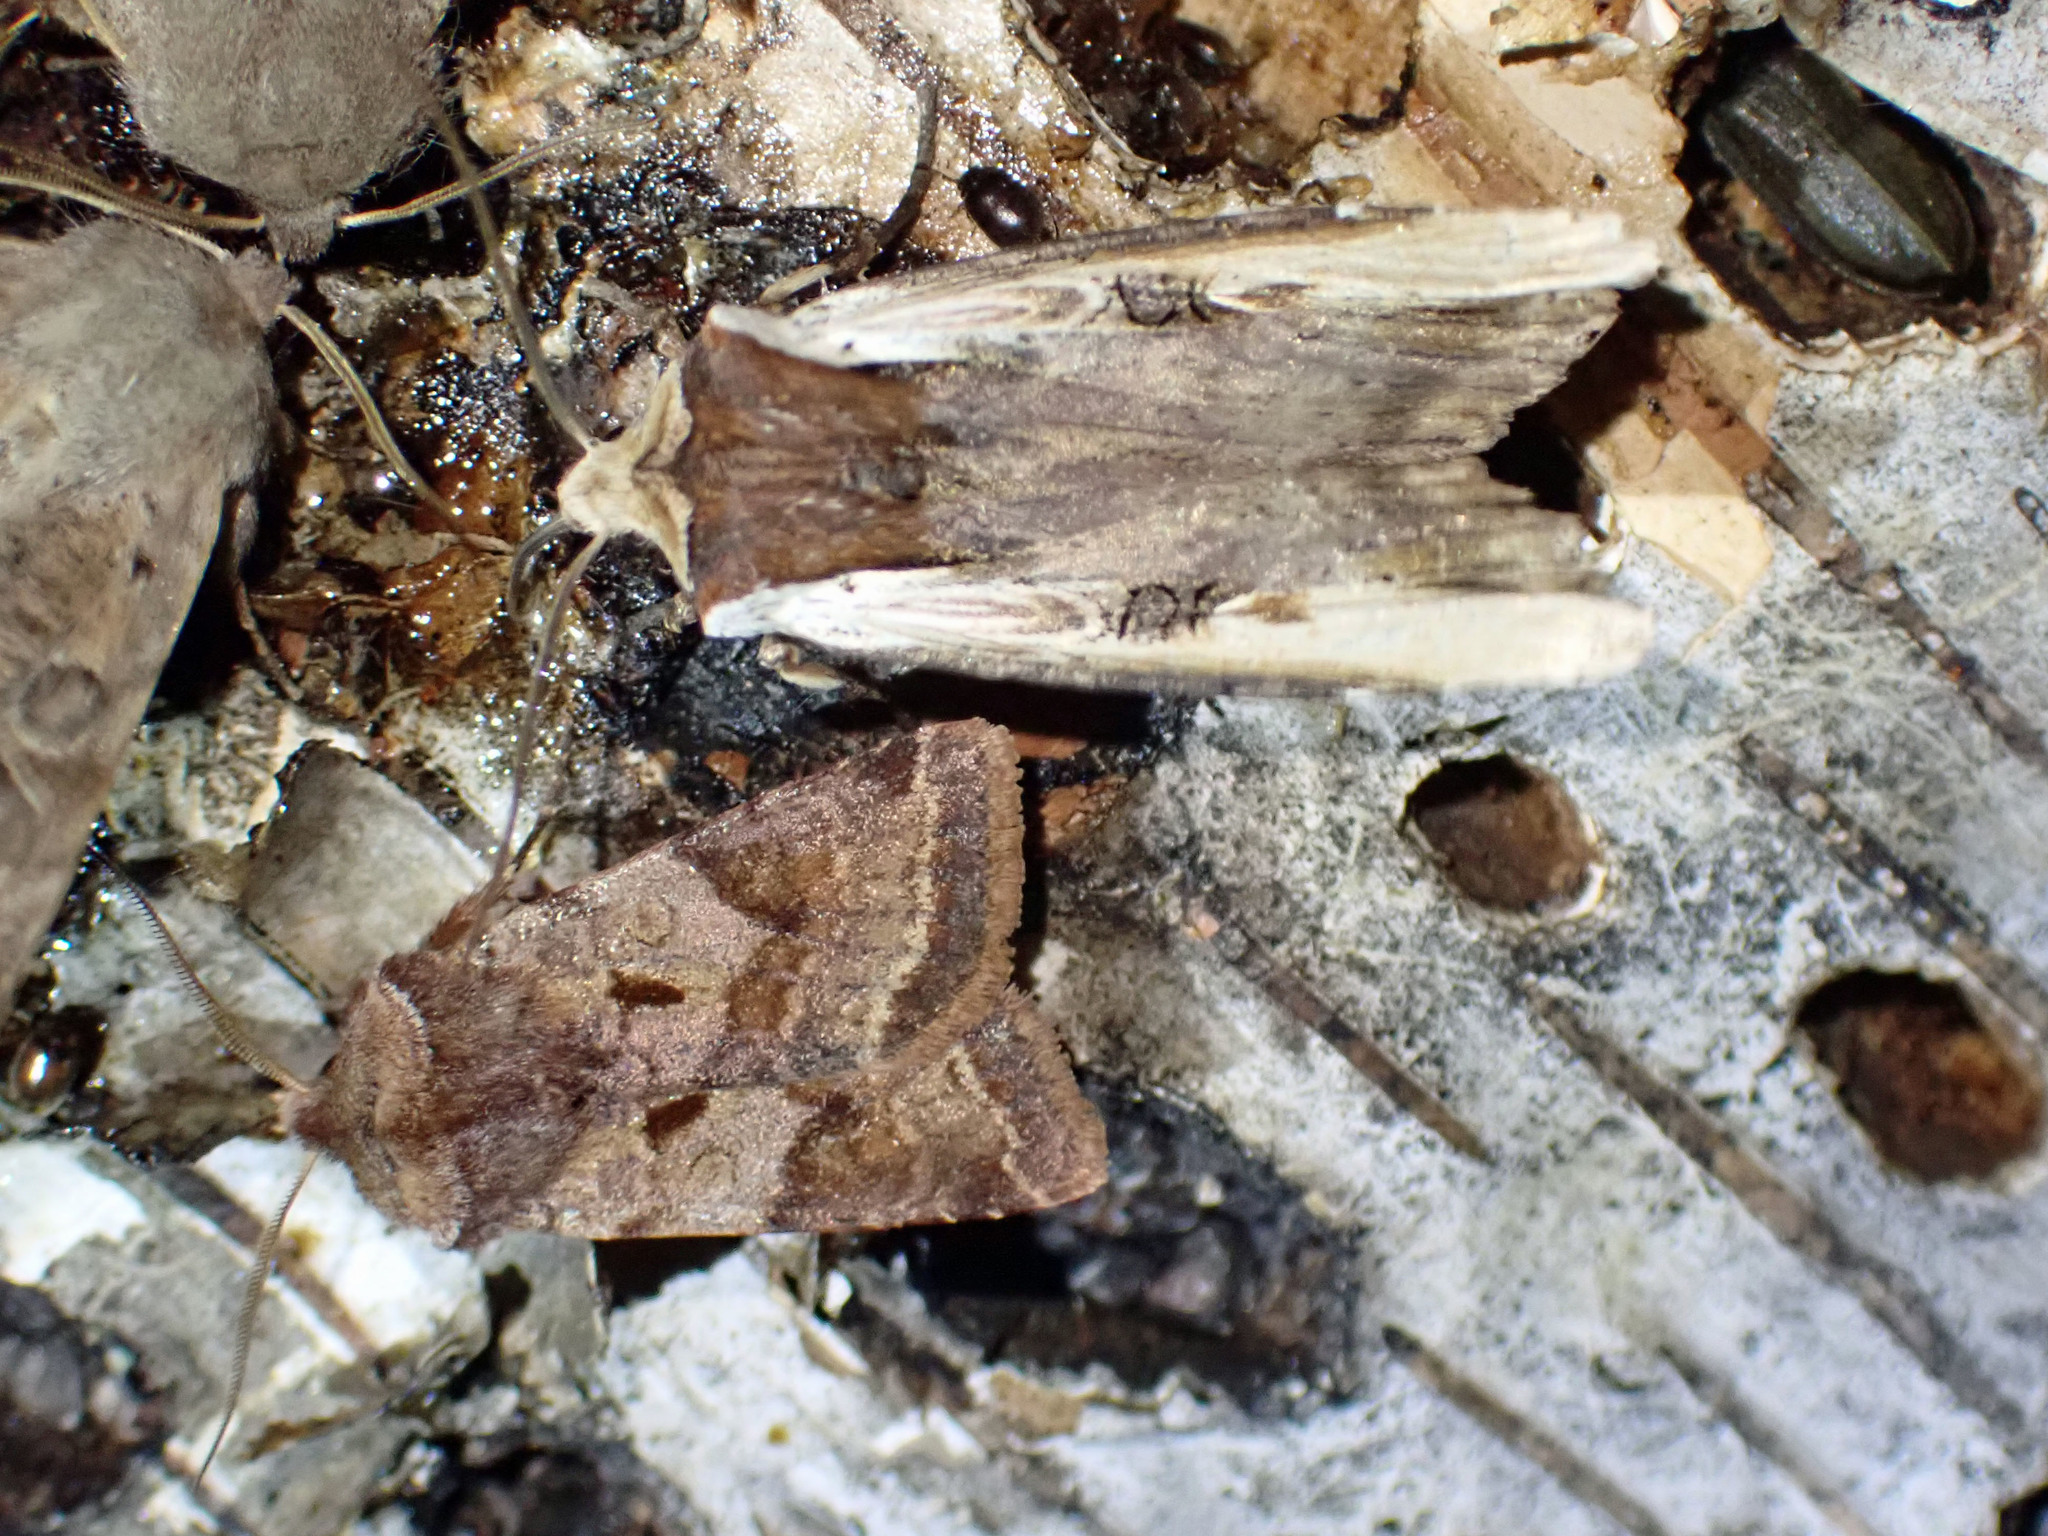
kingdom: Animalia
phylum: Arthropoda
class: Insecta
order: Lepidoptera
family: Noctuidae
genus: Xylena
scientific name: Xylena curvimacula
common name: Dot-and-dash swordgrass moth
